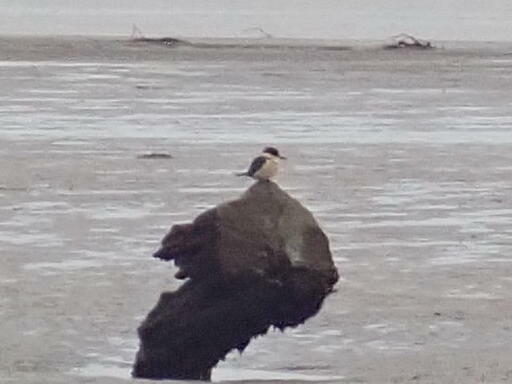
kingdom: Animalia
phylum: Chordata
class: Aves
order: Coraciiformes
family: Alcedinidae
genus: Todiramphus
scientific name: Todiramphus sanctus
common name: Sacred kingfisher
